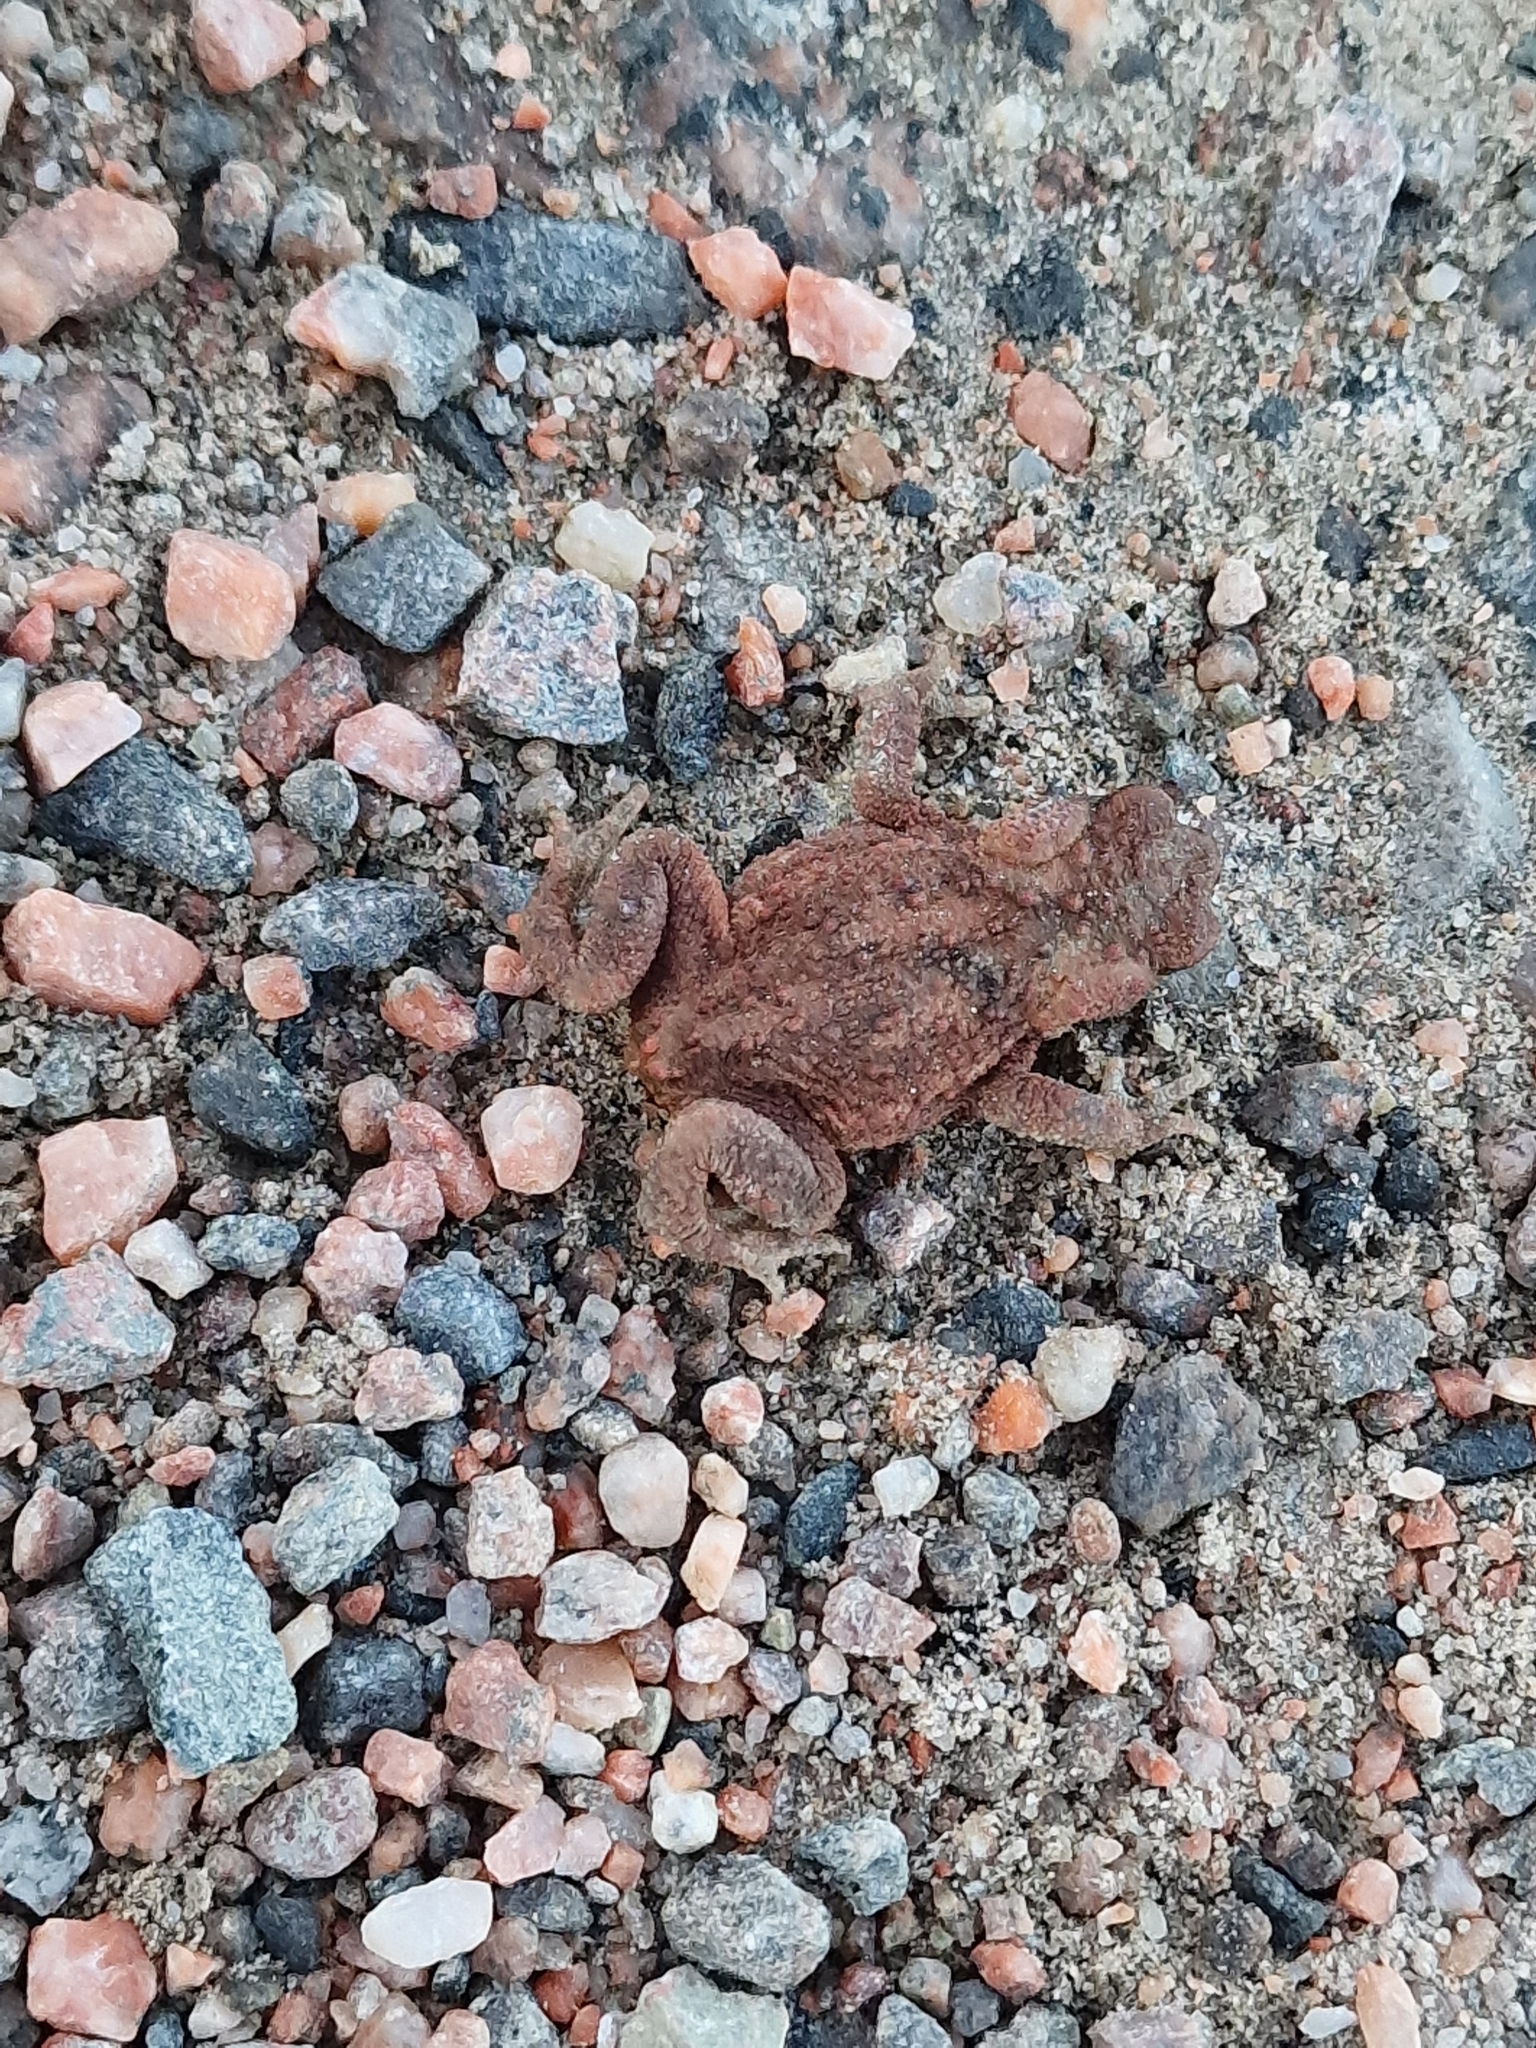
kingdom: Animalia
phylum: Chordata
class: Amphibia
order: Anura
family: Bufonidae
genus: Bufo
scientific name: Bufo bufo
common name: Common toad
